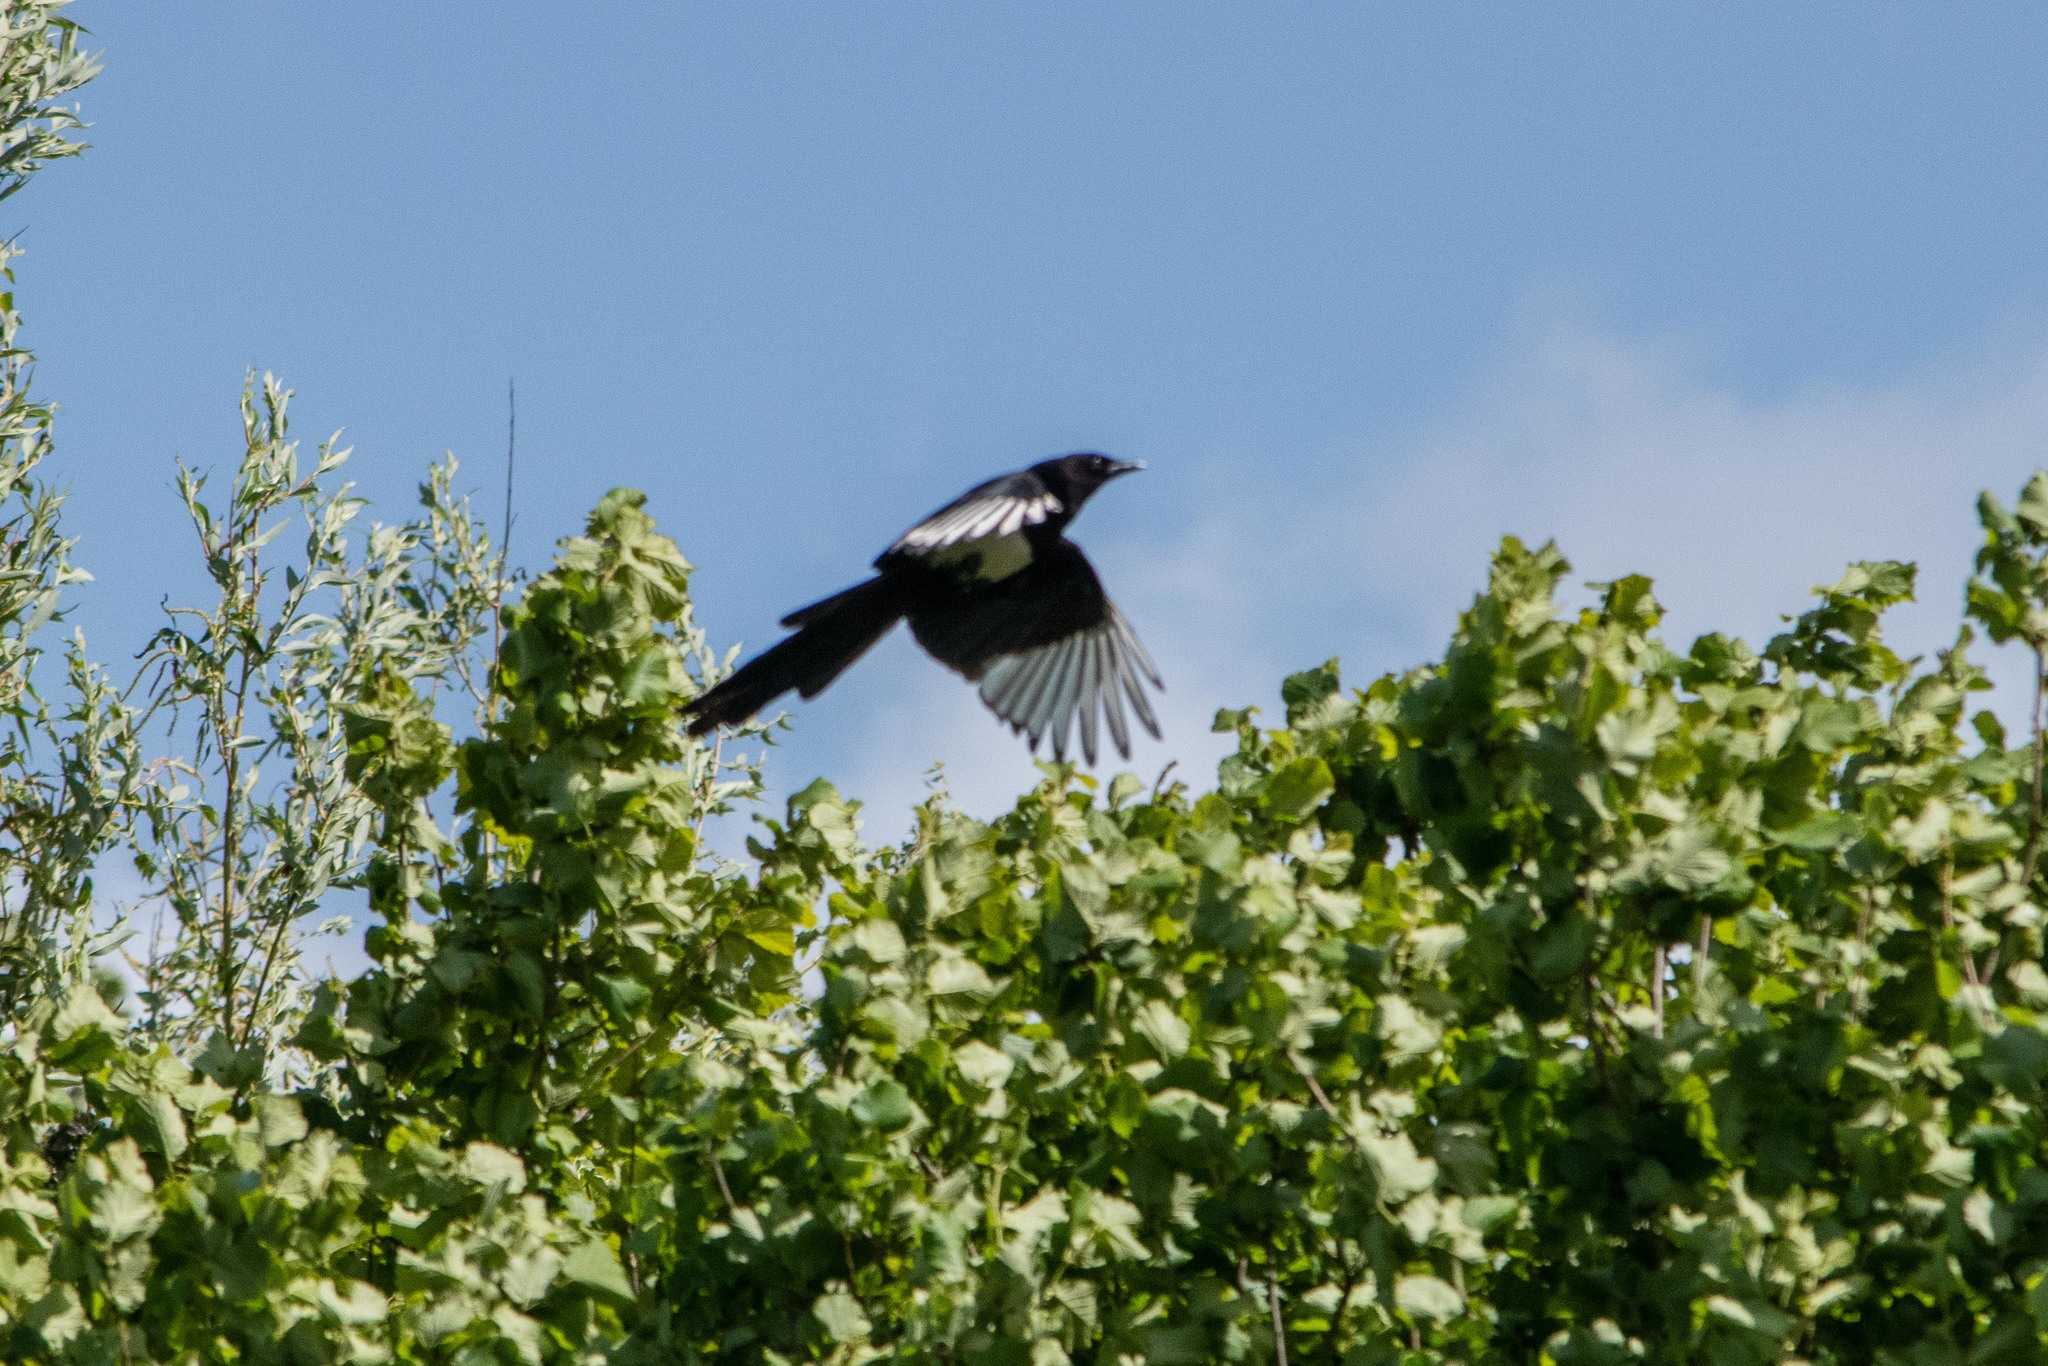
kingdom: Animalia
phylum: Chordata
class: Aves
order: Passeriformes
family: Corvidae
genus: Pica
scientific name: Pica pica
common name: Eurasian magpie
